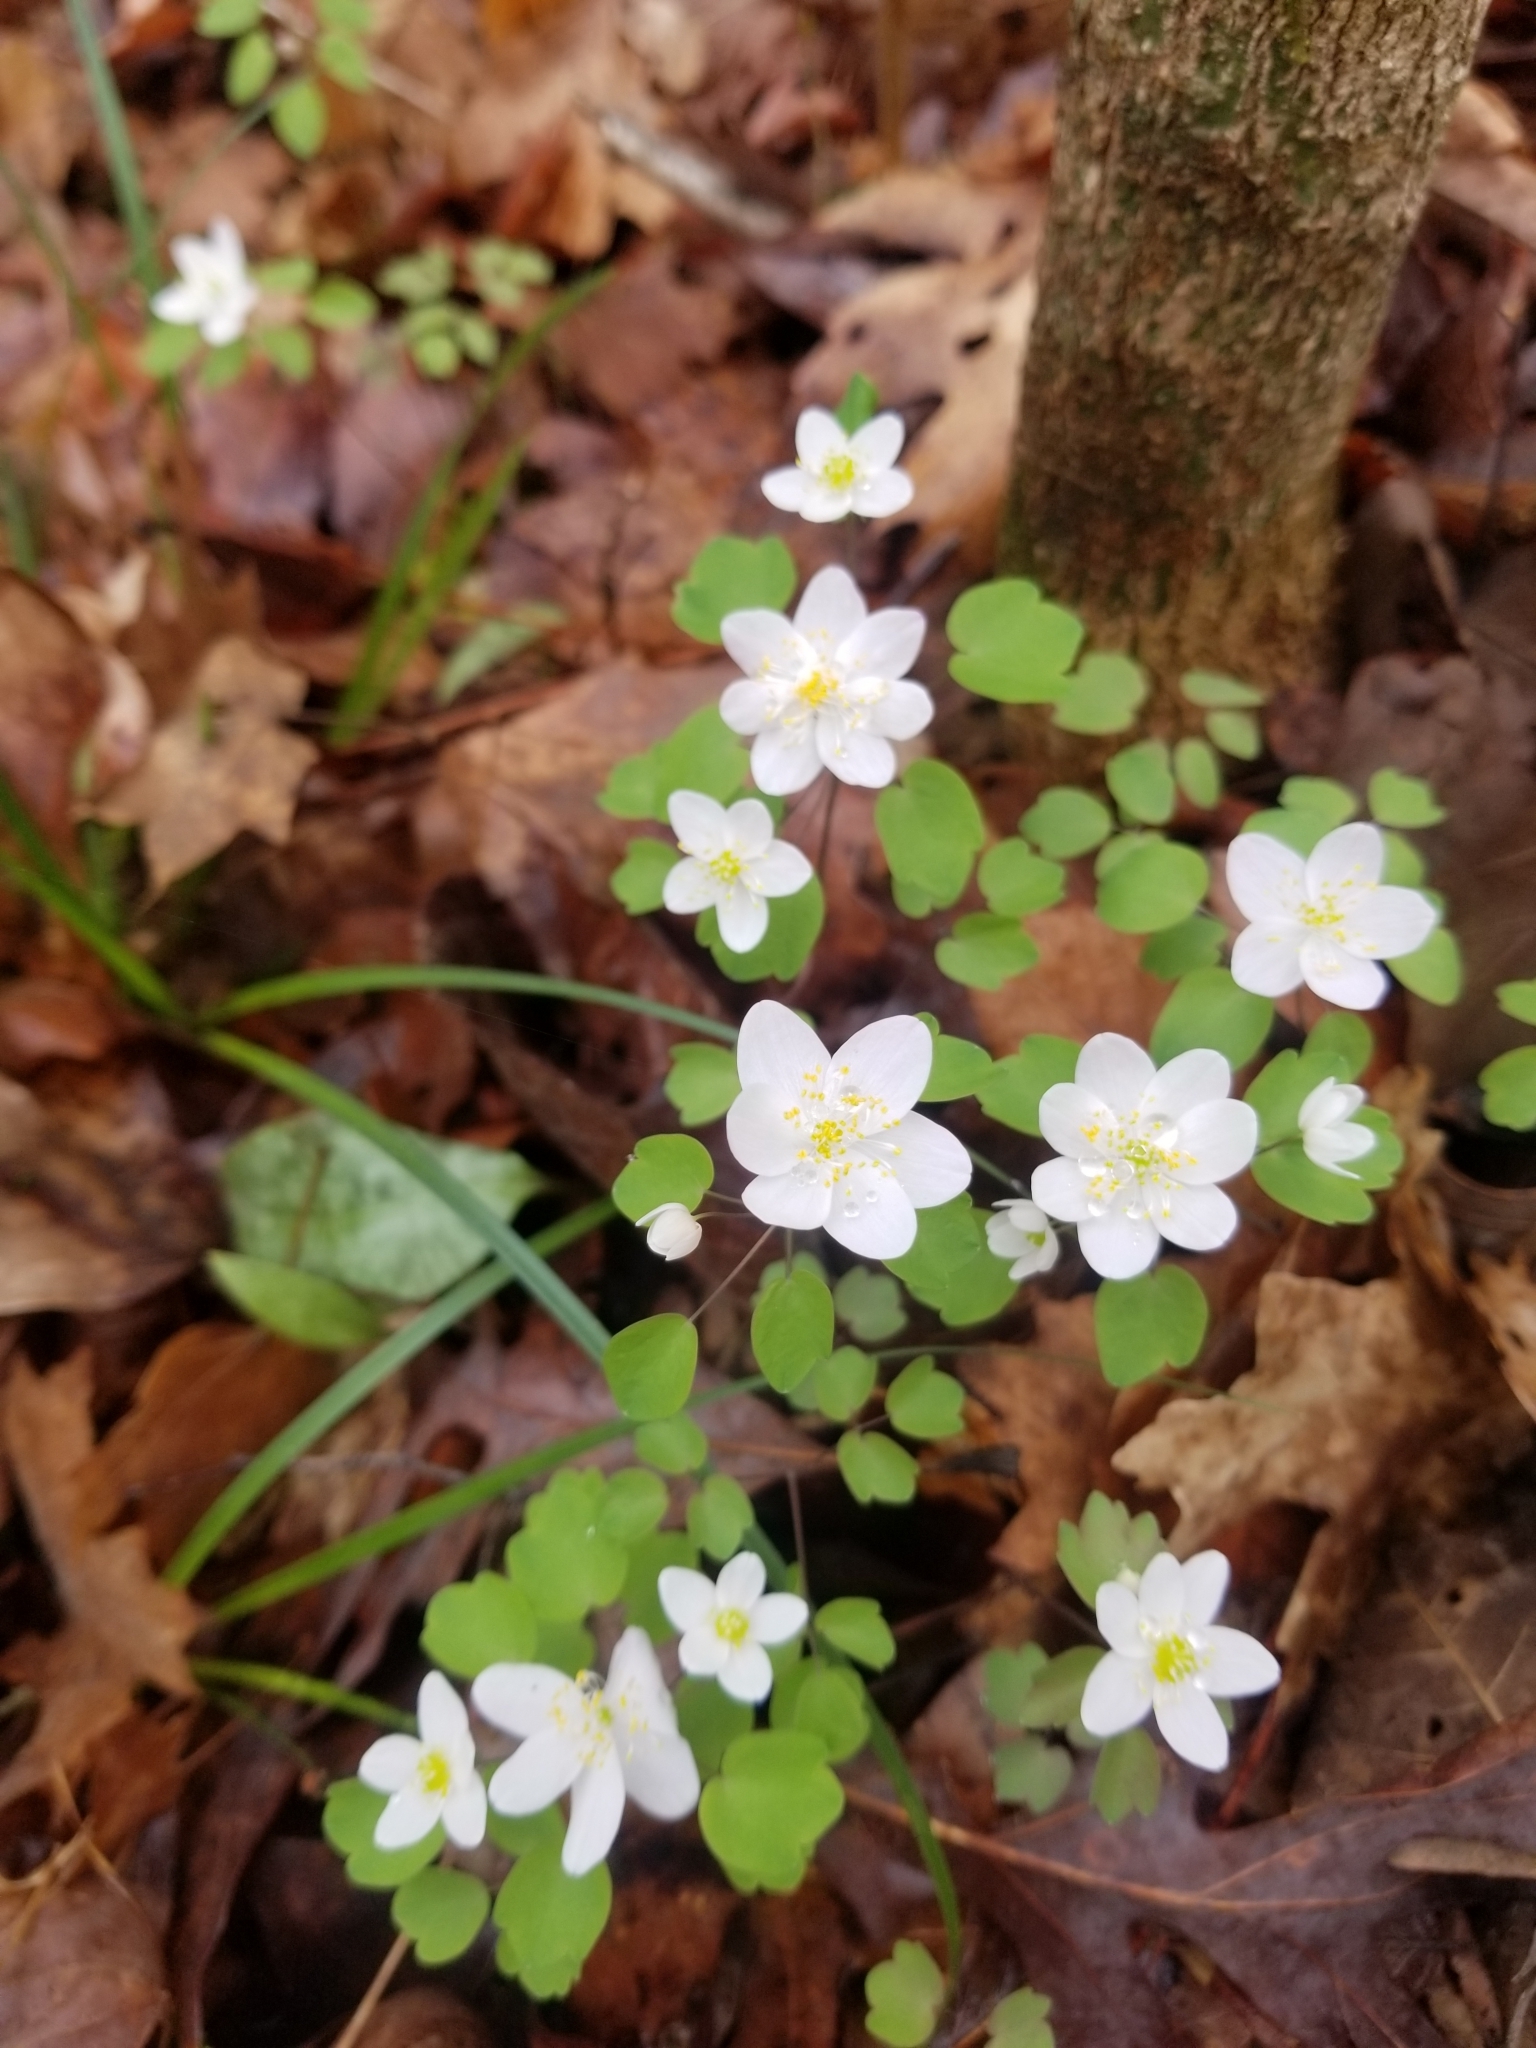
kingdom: Plantae
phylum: Tracheophyta
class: Magnoliopsida
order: Ranunculales
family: Ranunculaceae
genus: Thalictrum
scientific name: Thalictrum thalictroides
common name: Rue-anemone
